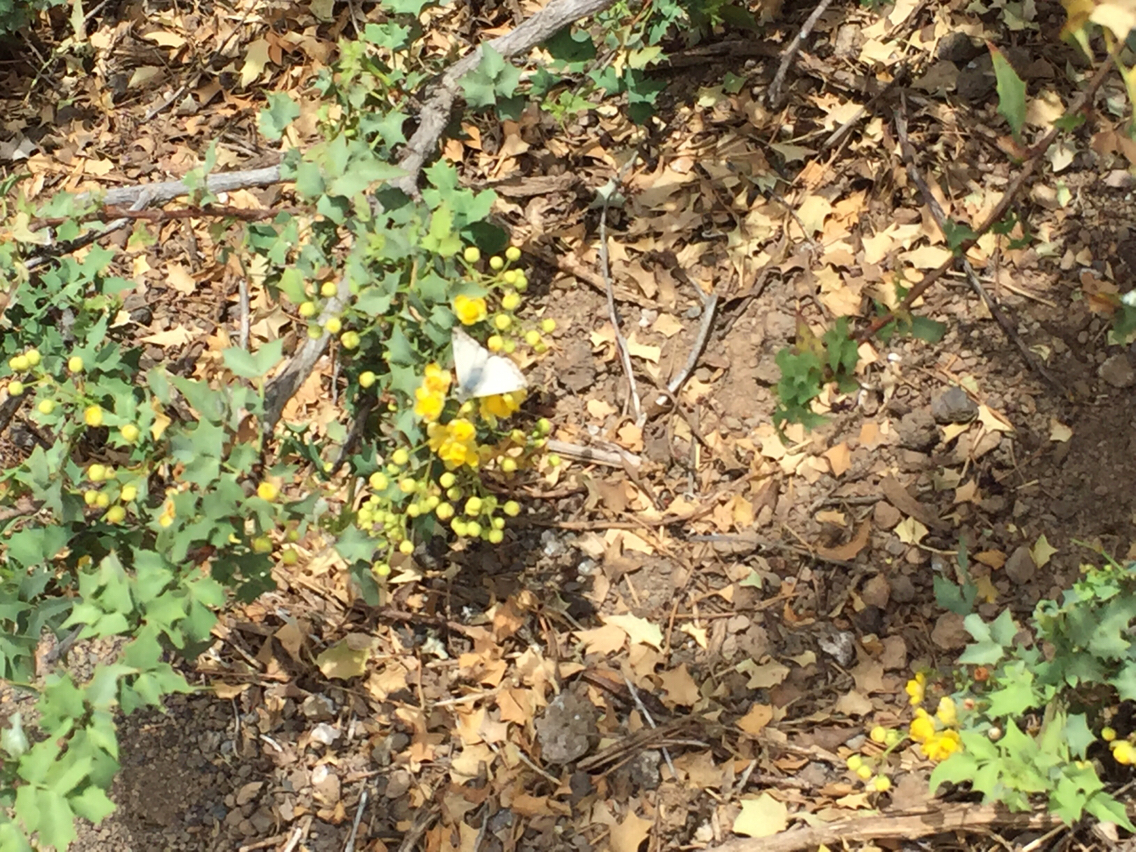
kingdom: Animalia
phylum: Arthropoda
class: Insecta
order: Lepidoptera
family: Hesperiidae
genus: Heliopetes
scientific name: Heliopetes ericetorum
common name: Northern white-skipper
